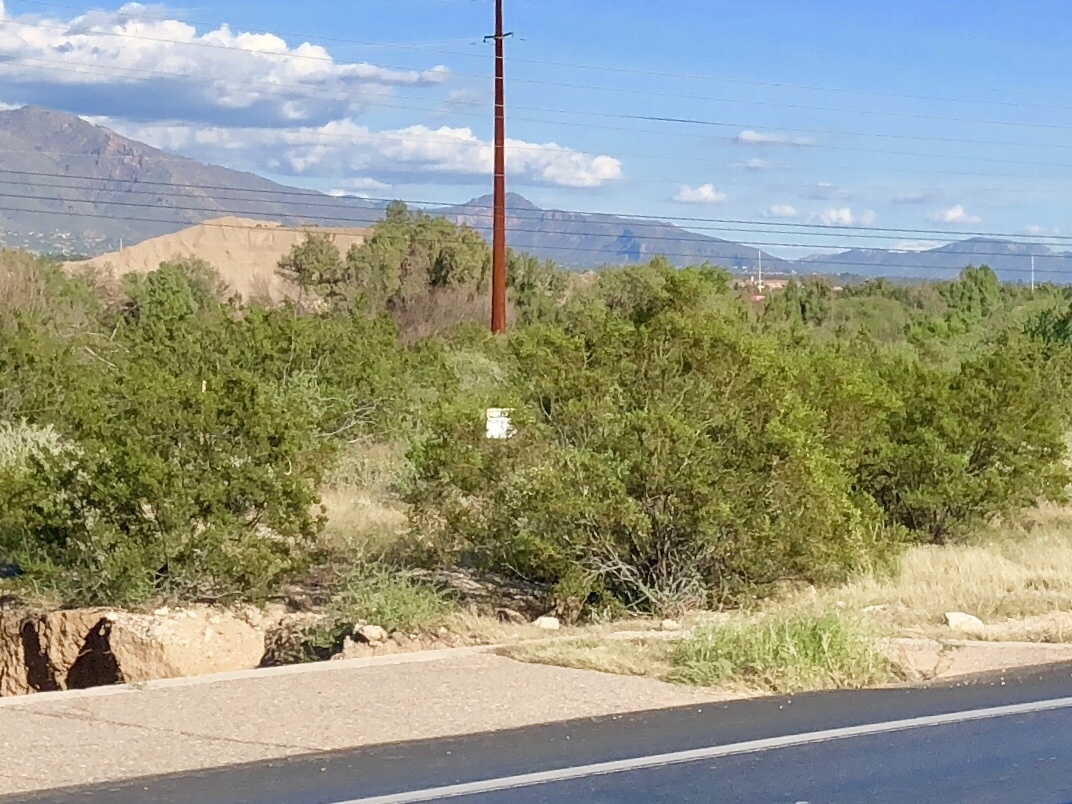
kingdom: Plantae
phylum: Tracheophyta
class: Magnoliopsida
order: Zygophyllales
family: Zygophyllaceae
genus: Larrea
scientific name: Larrea tridentata
